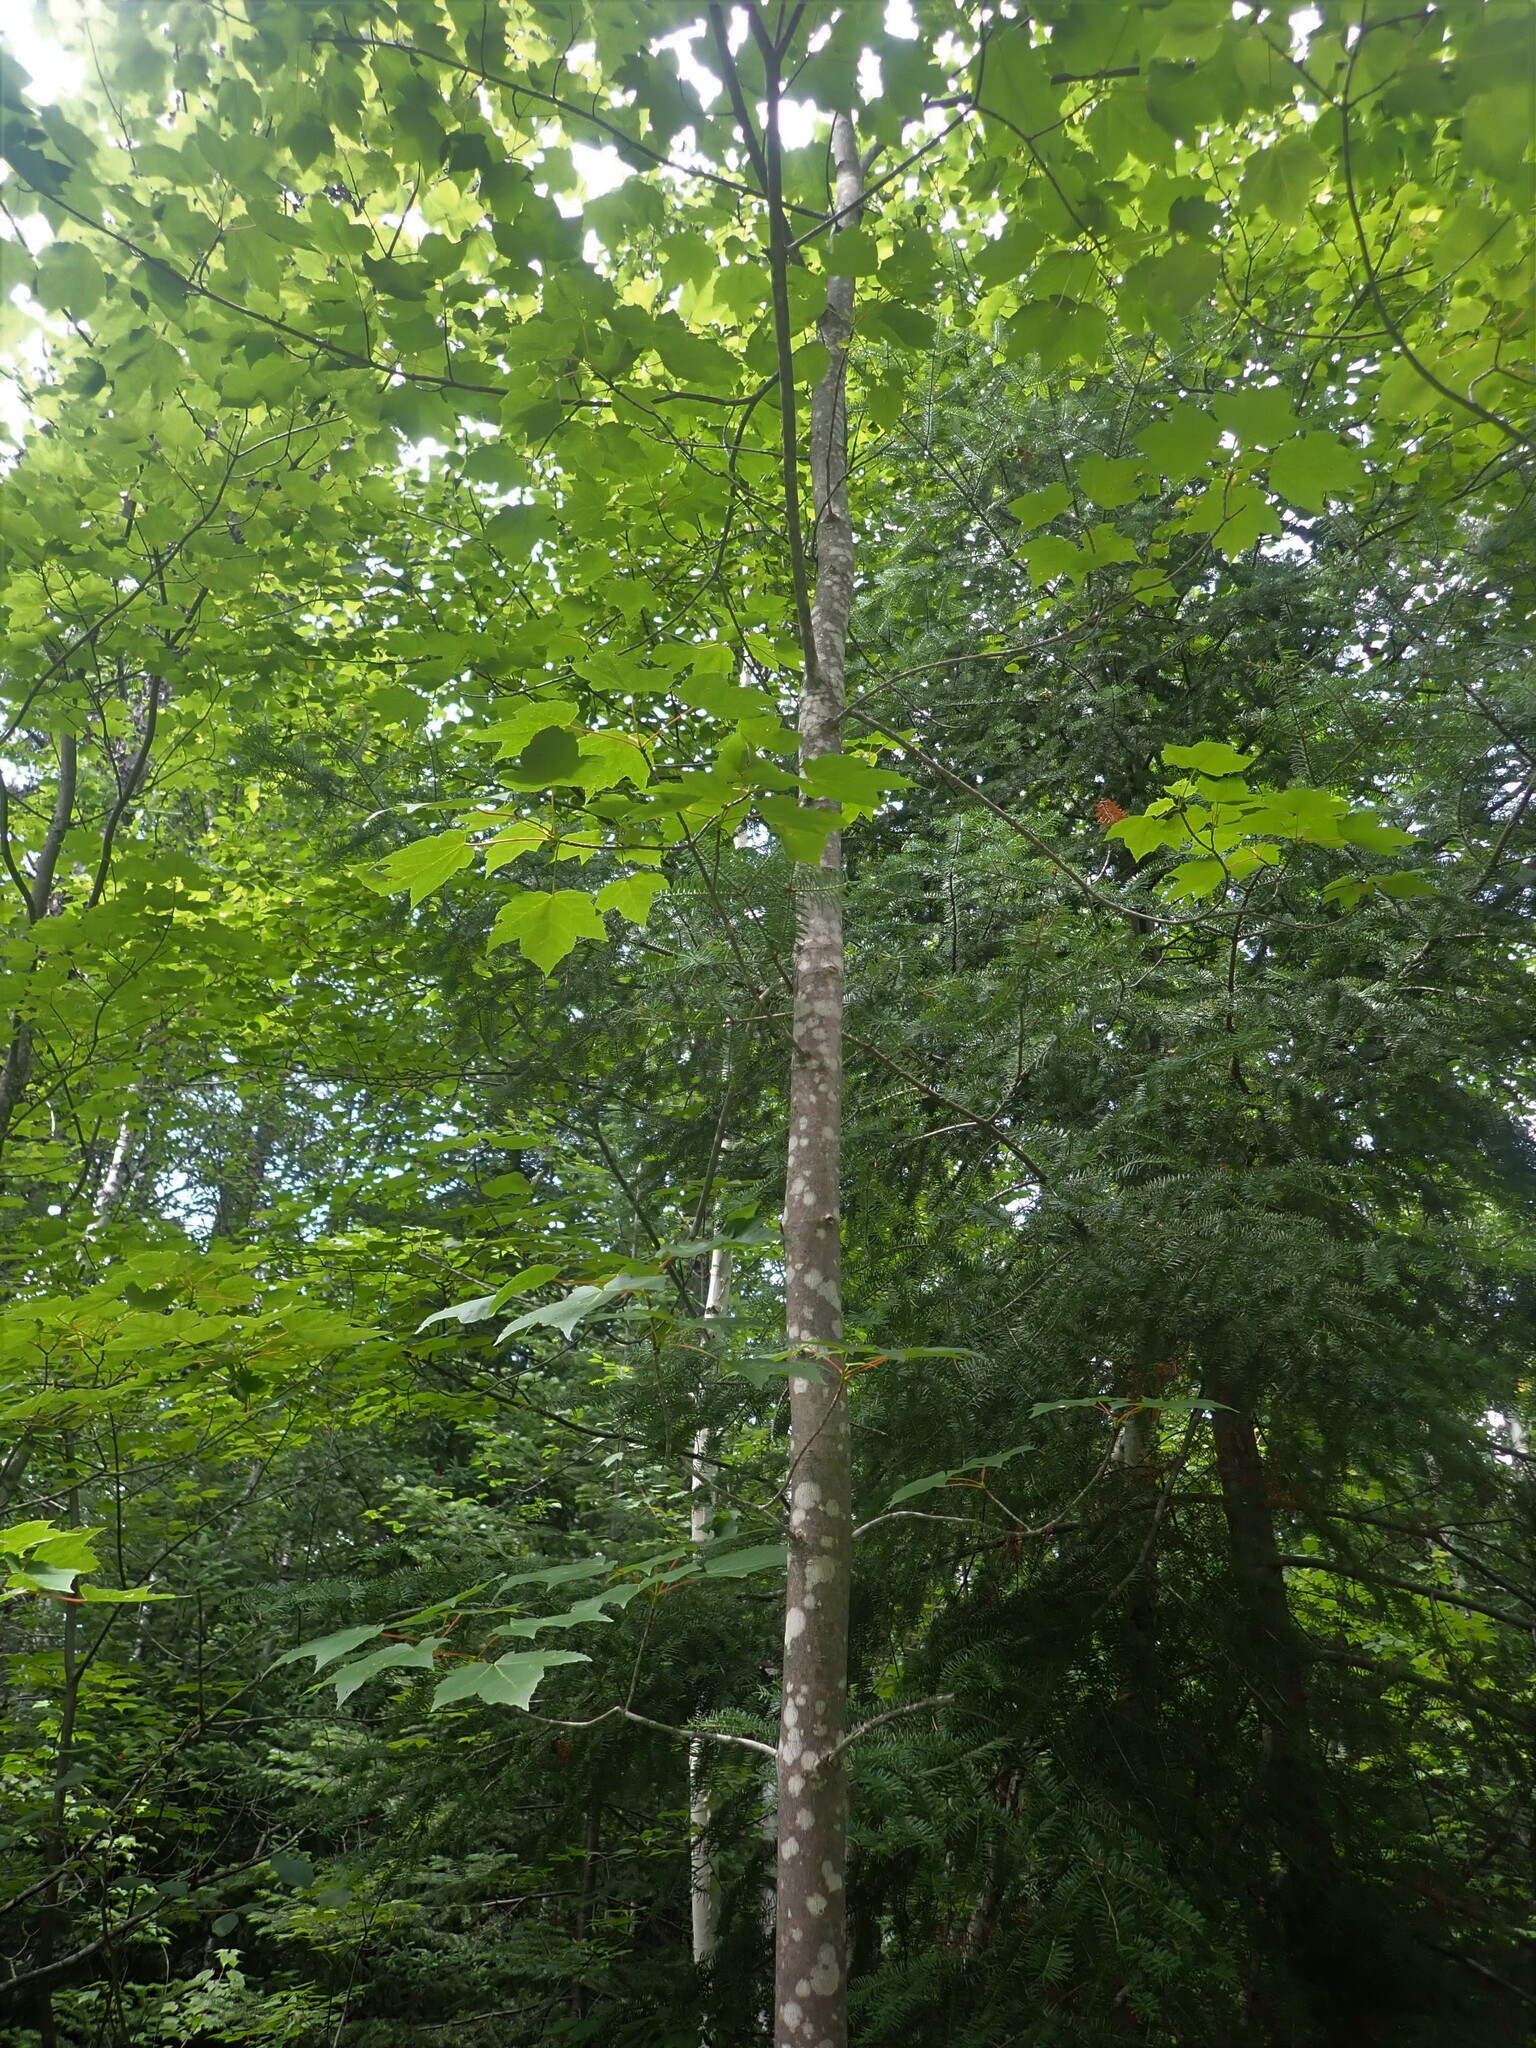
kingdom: Plantae
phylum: Tracheophyta
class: Magnoliopsida
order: Sapindales
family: Sapindaceae
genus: Acer
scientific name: Acer rubrum
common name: Red maple
